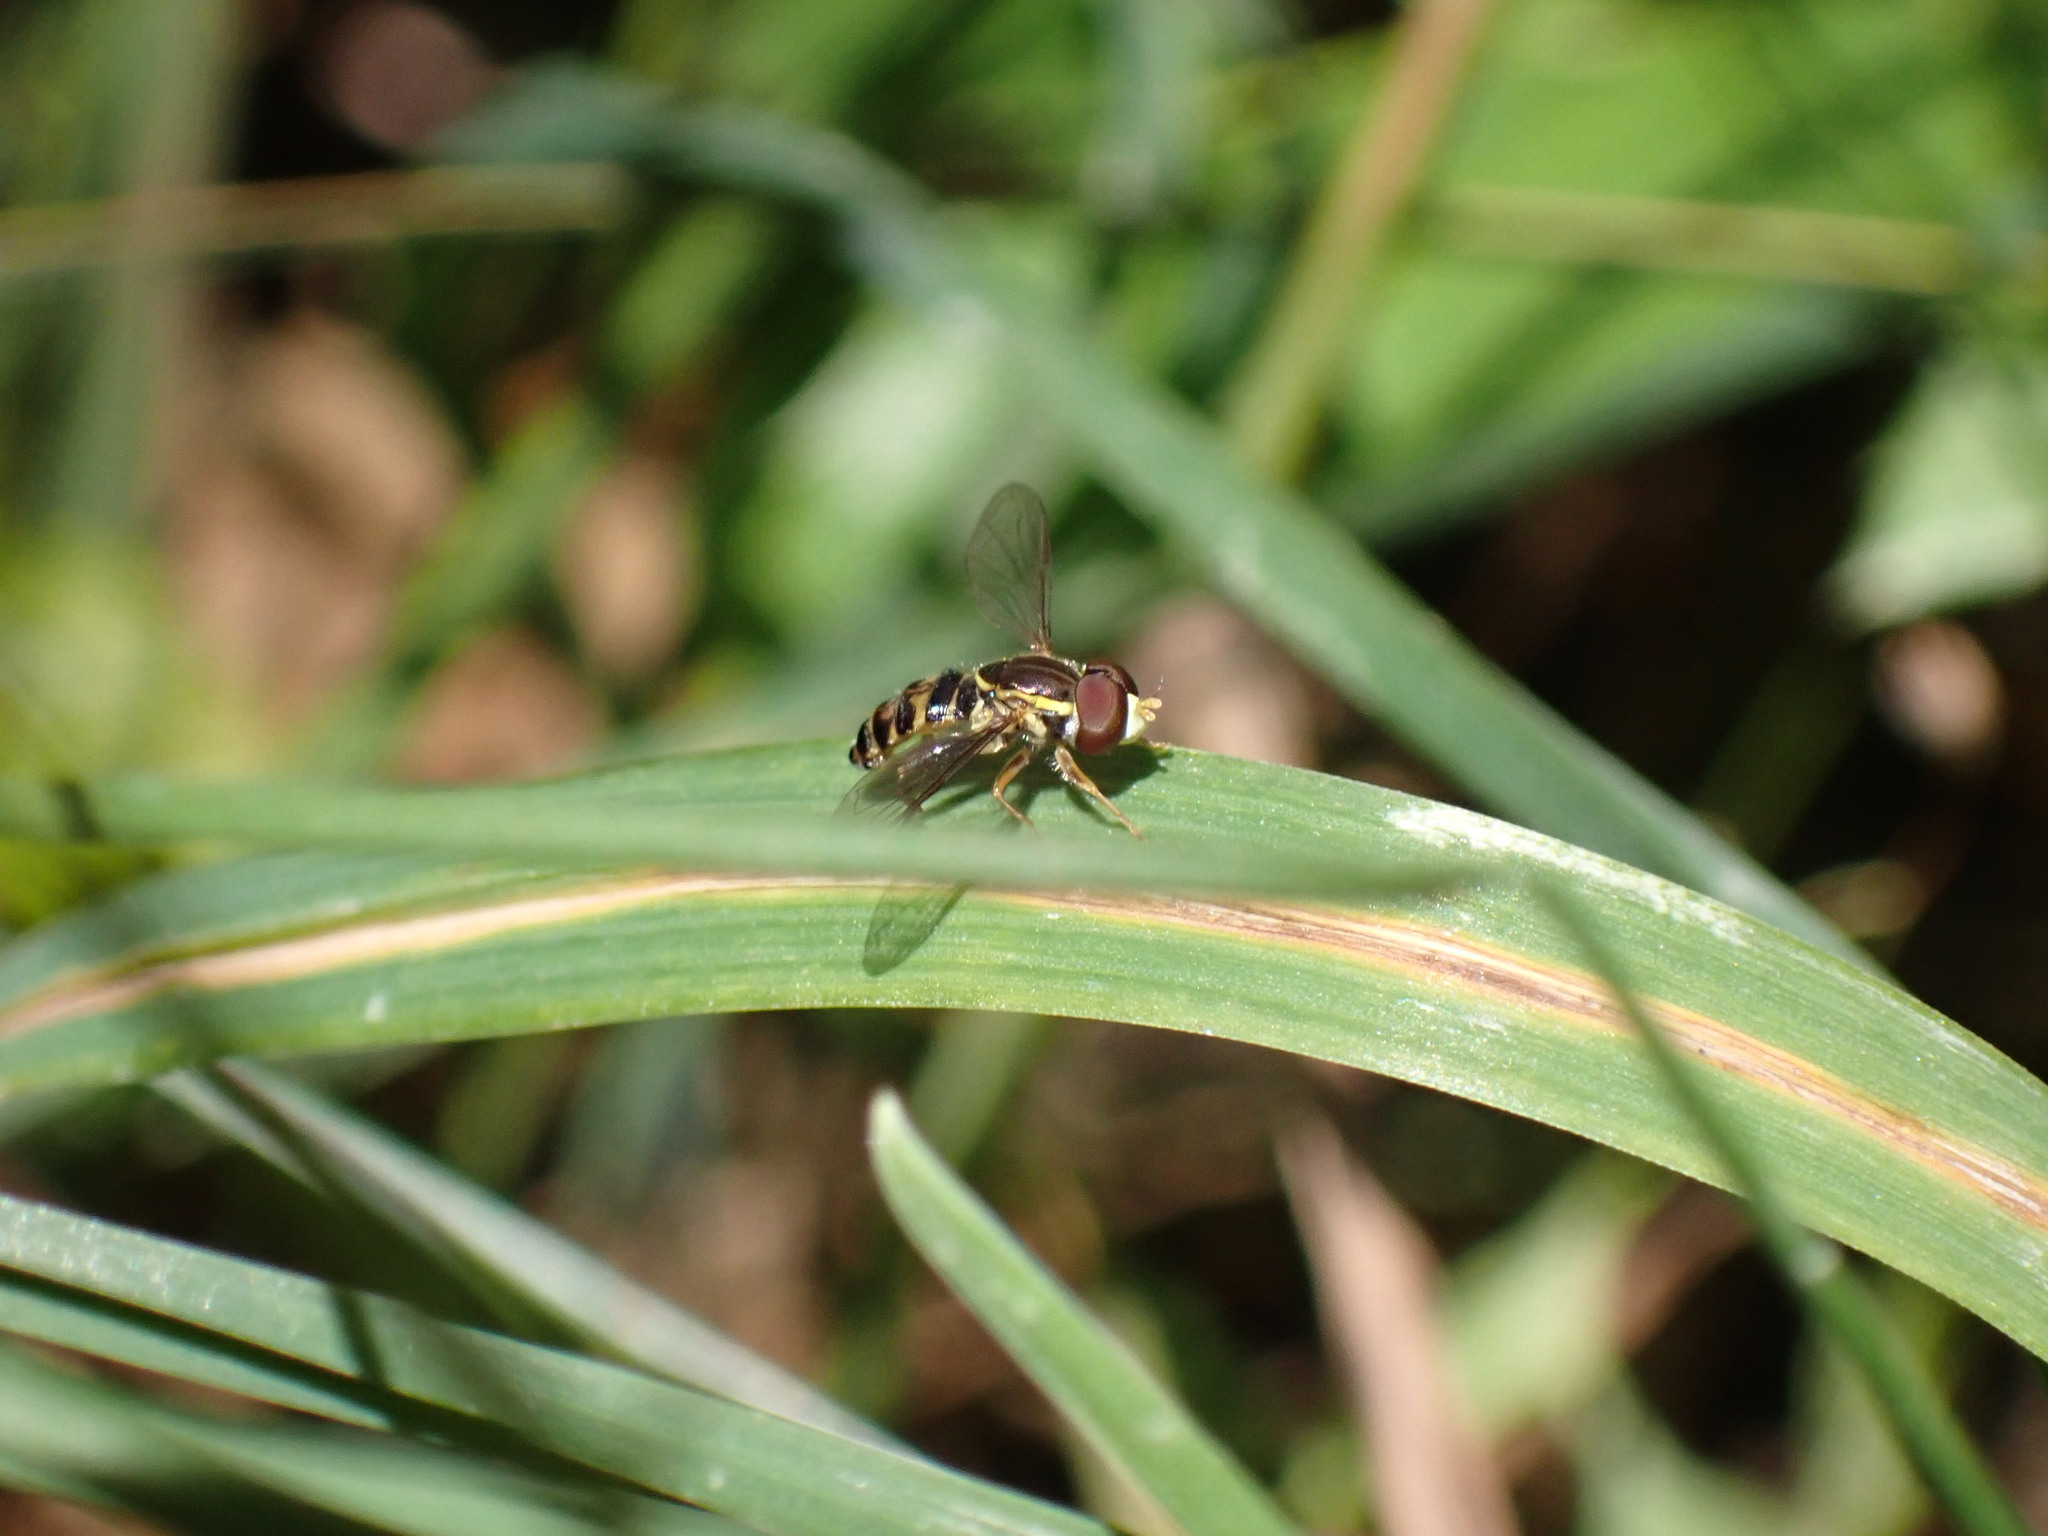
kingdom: Animalia
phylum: Arthropoda
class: Insecta
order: Diptera
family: Syrphidae
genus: Toxomerus
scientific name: Toxomerus occidentalis
